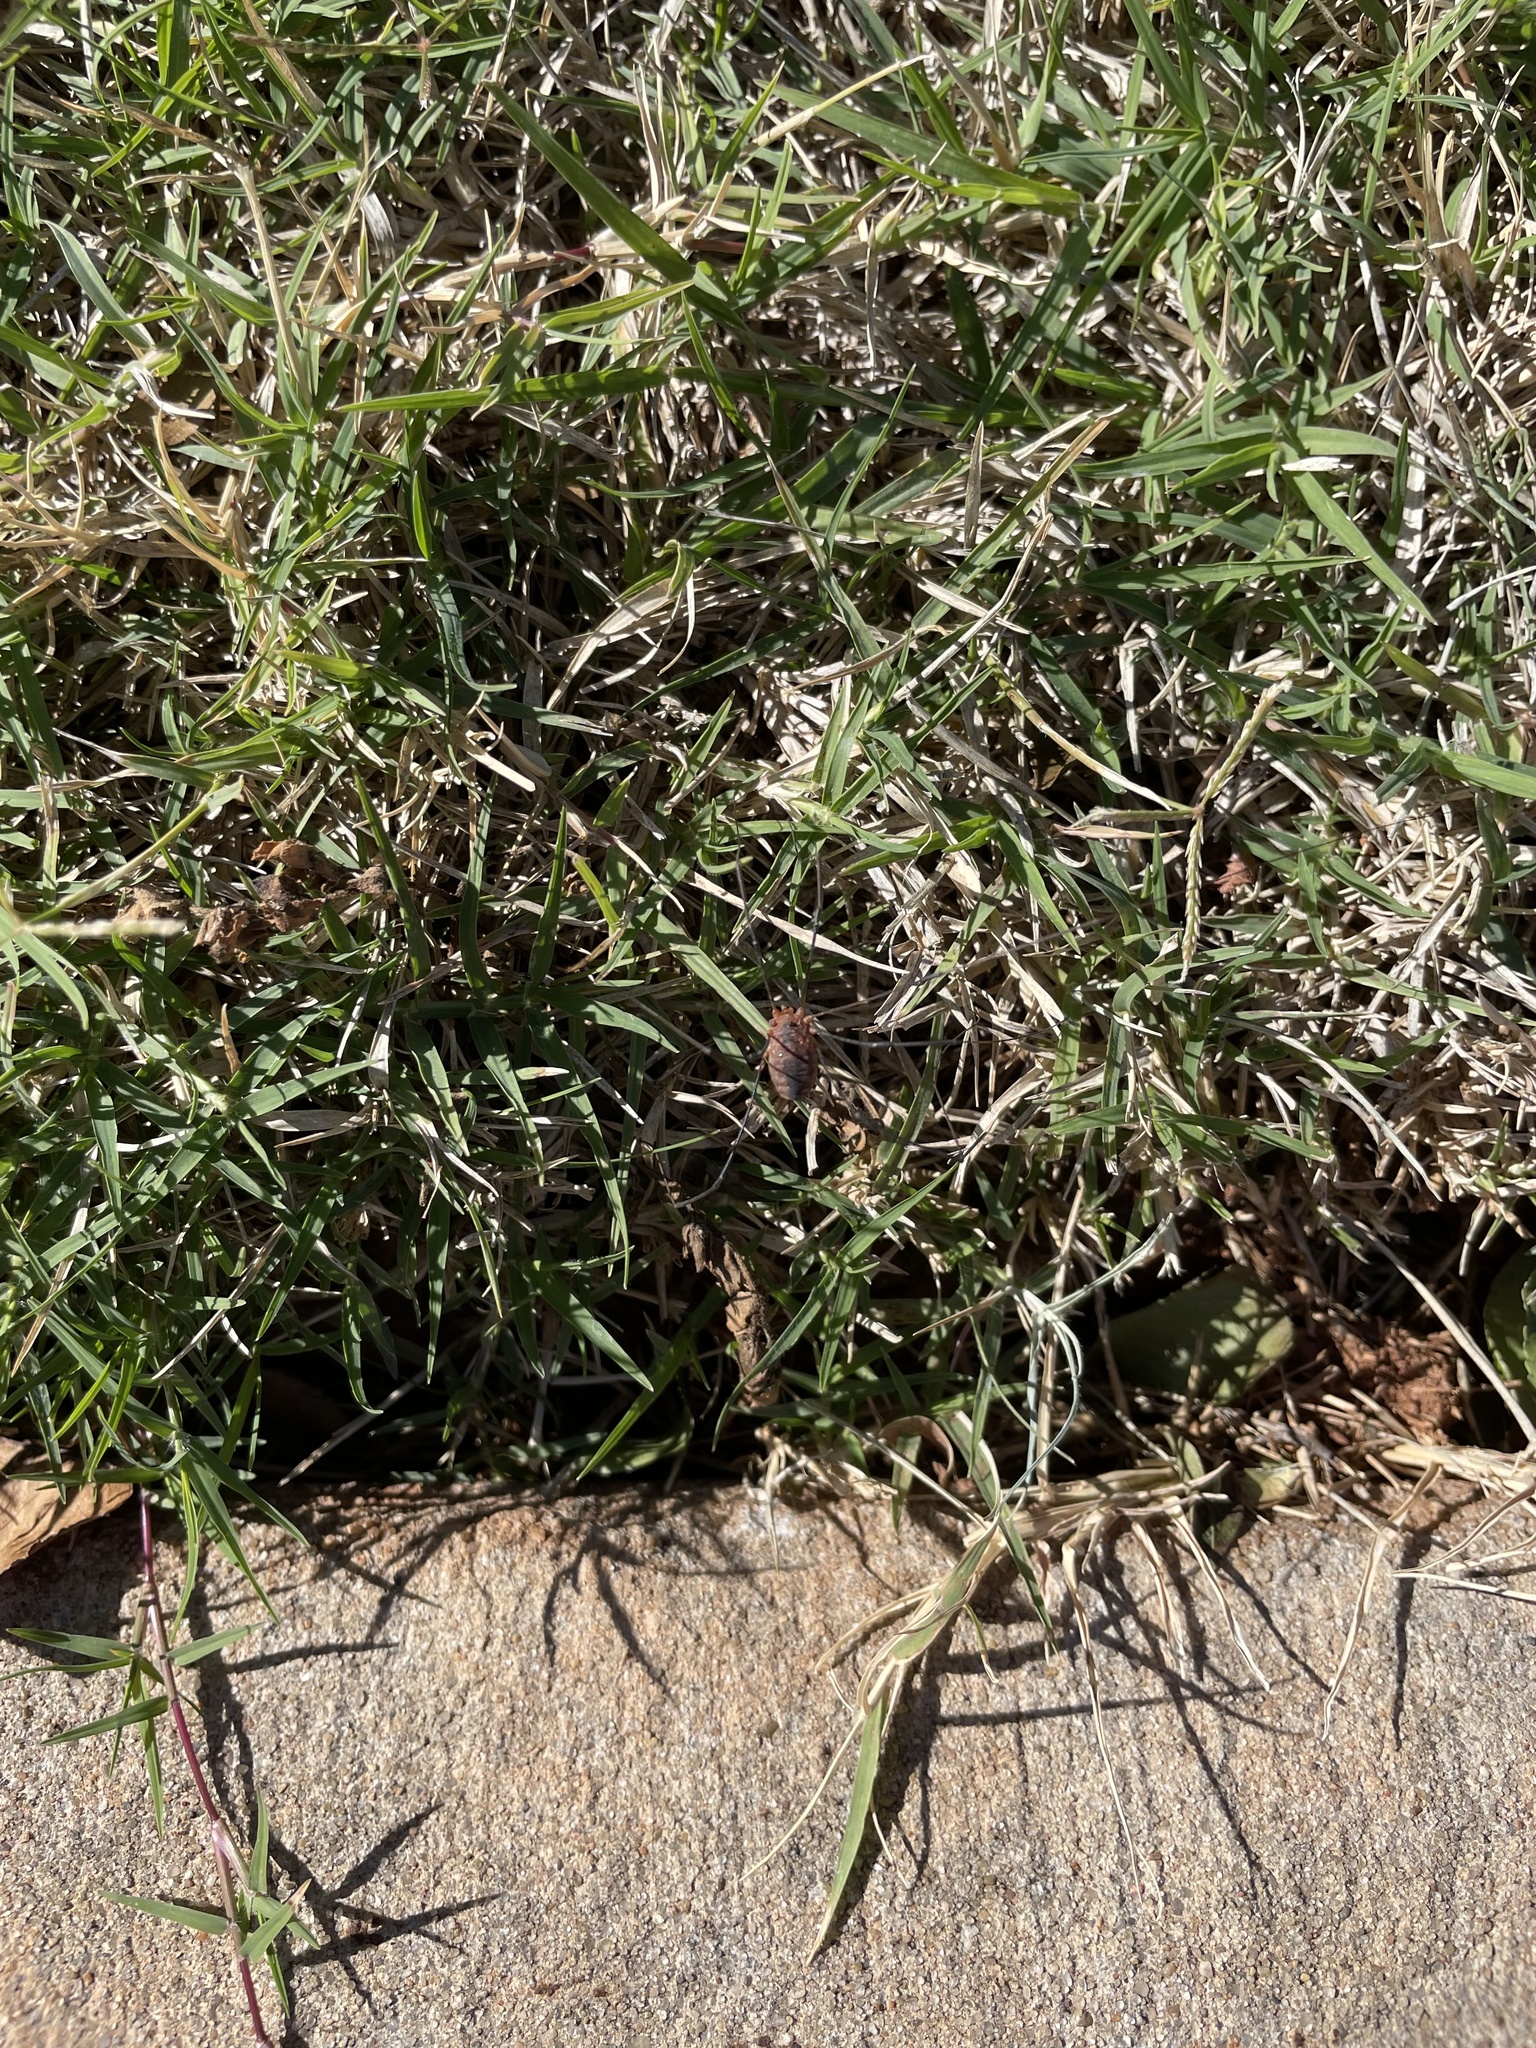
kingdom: Animalia
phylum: Arthropoda
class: Arachnida
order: Opiliones
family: Sclerosomatidae
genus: Leiobunum
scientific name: Leiobunum vittatum
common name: Eastern harvestman
